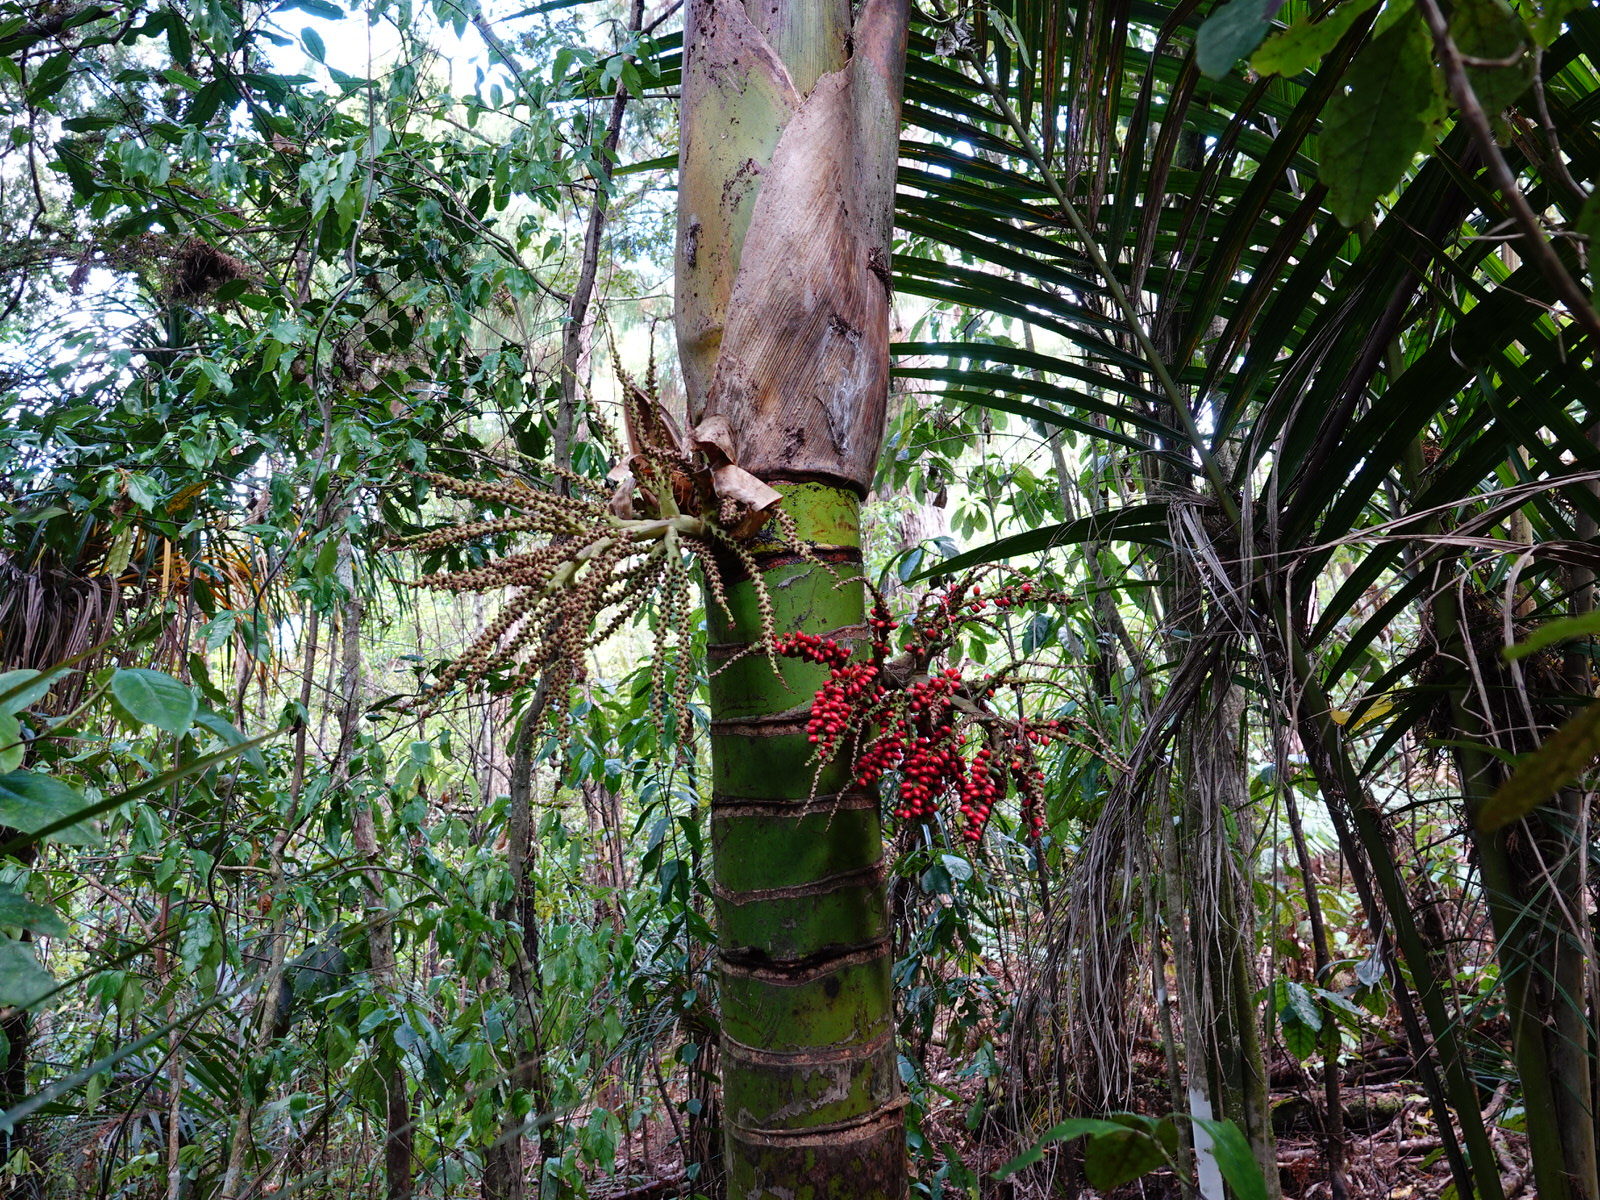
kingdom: Plantae
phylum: Tracheophyta
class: Liliopsida
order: Arecales
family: Arecaceae
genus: Rhopalostylis
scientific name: Rhopalostylis sapida
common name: Feather-duster palm
